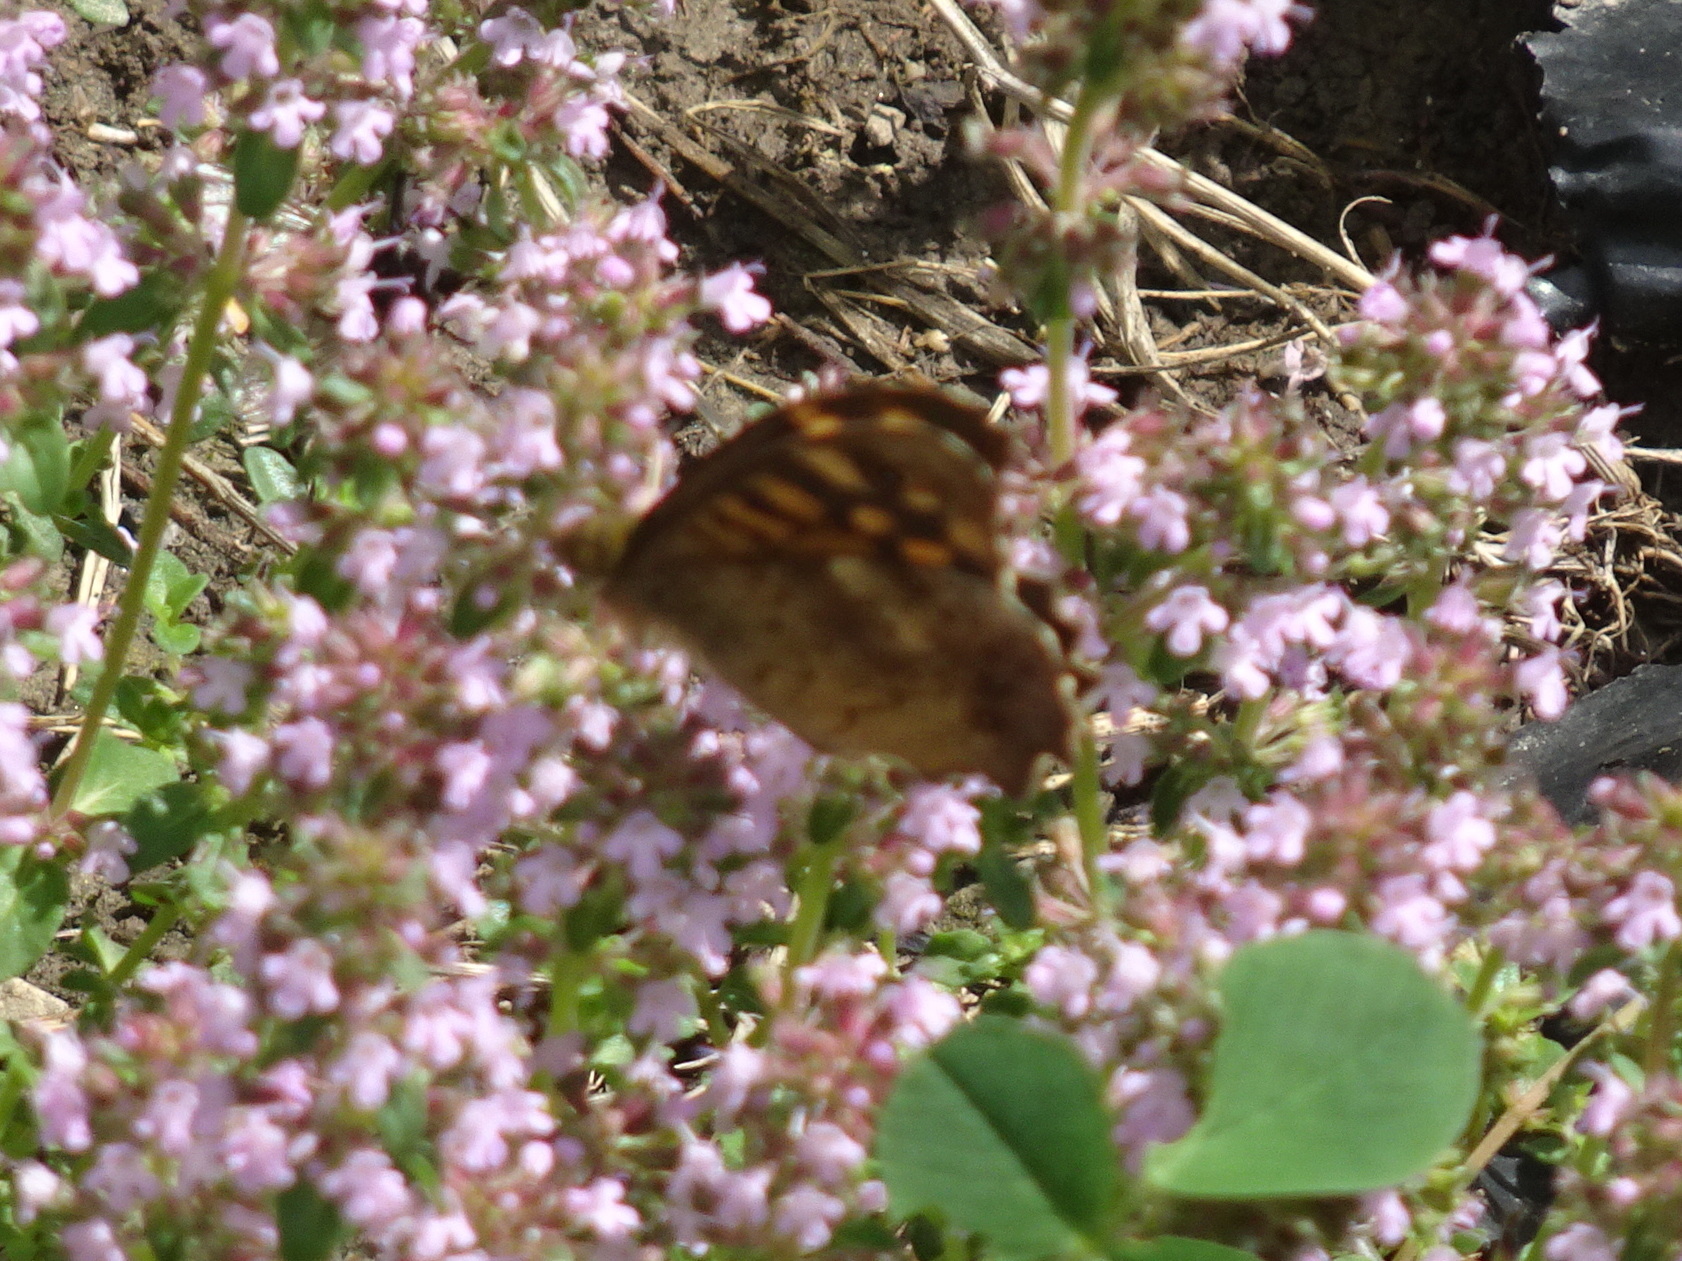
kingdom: Animalia
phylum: Arthropoda
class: Insecta
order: Lepidoptera
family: Nymphalidae
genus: Pararge
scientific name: Pararge aegeria
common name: Speckled wood
